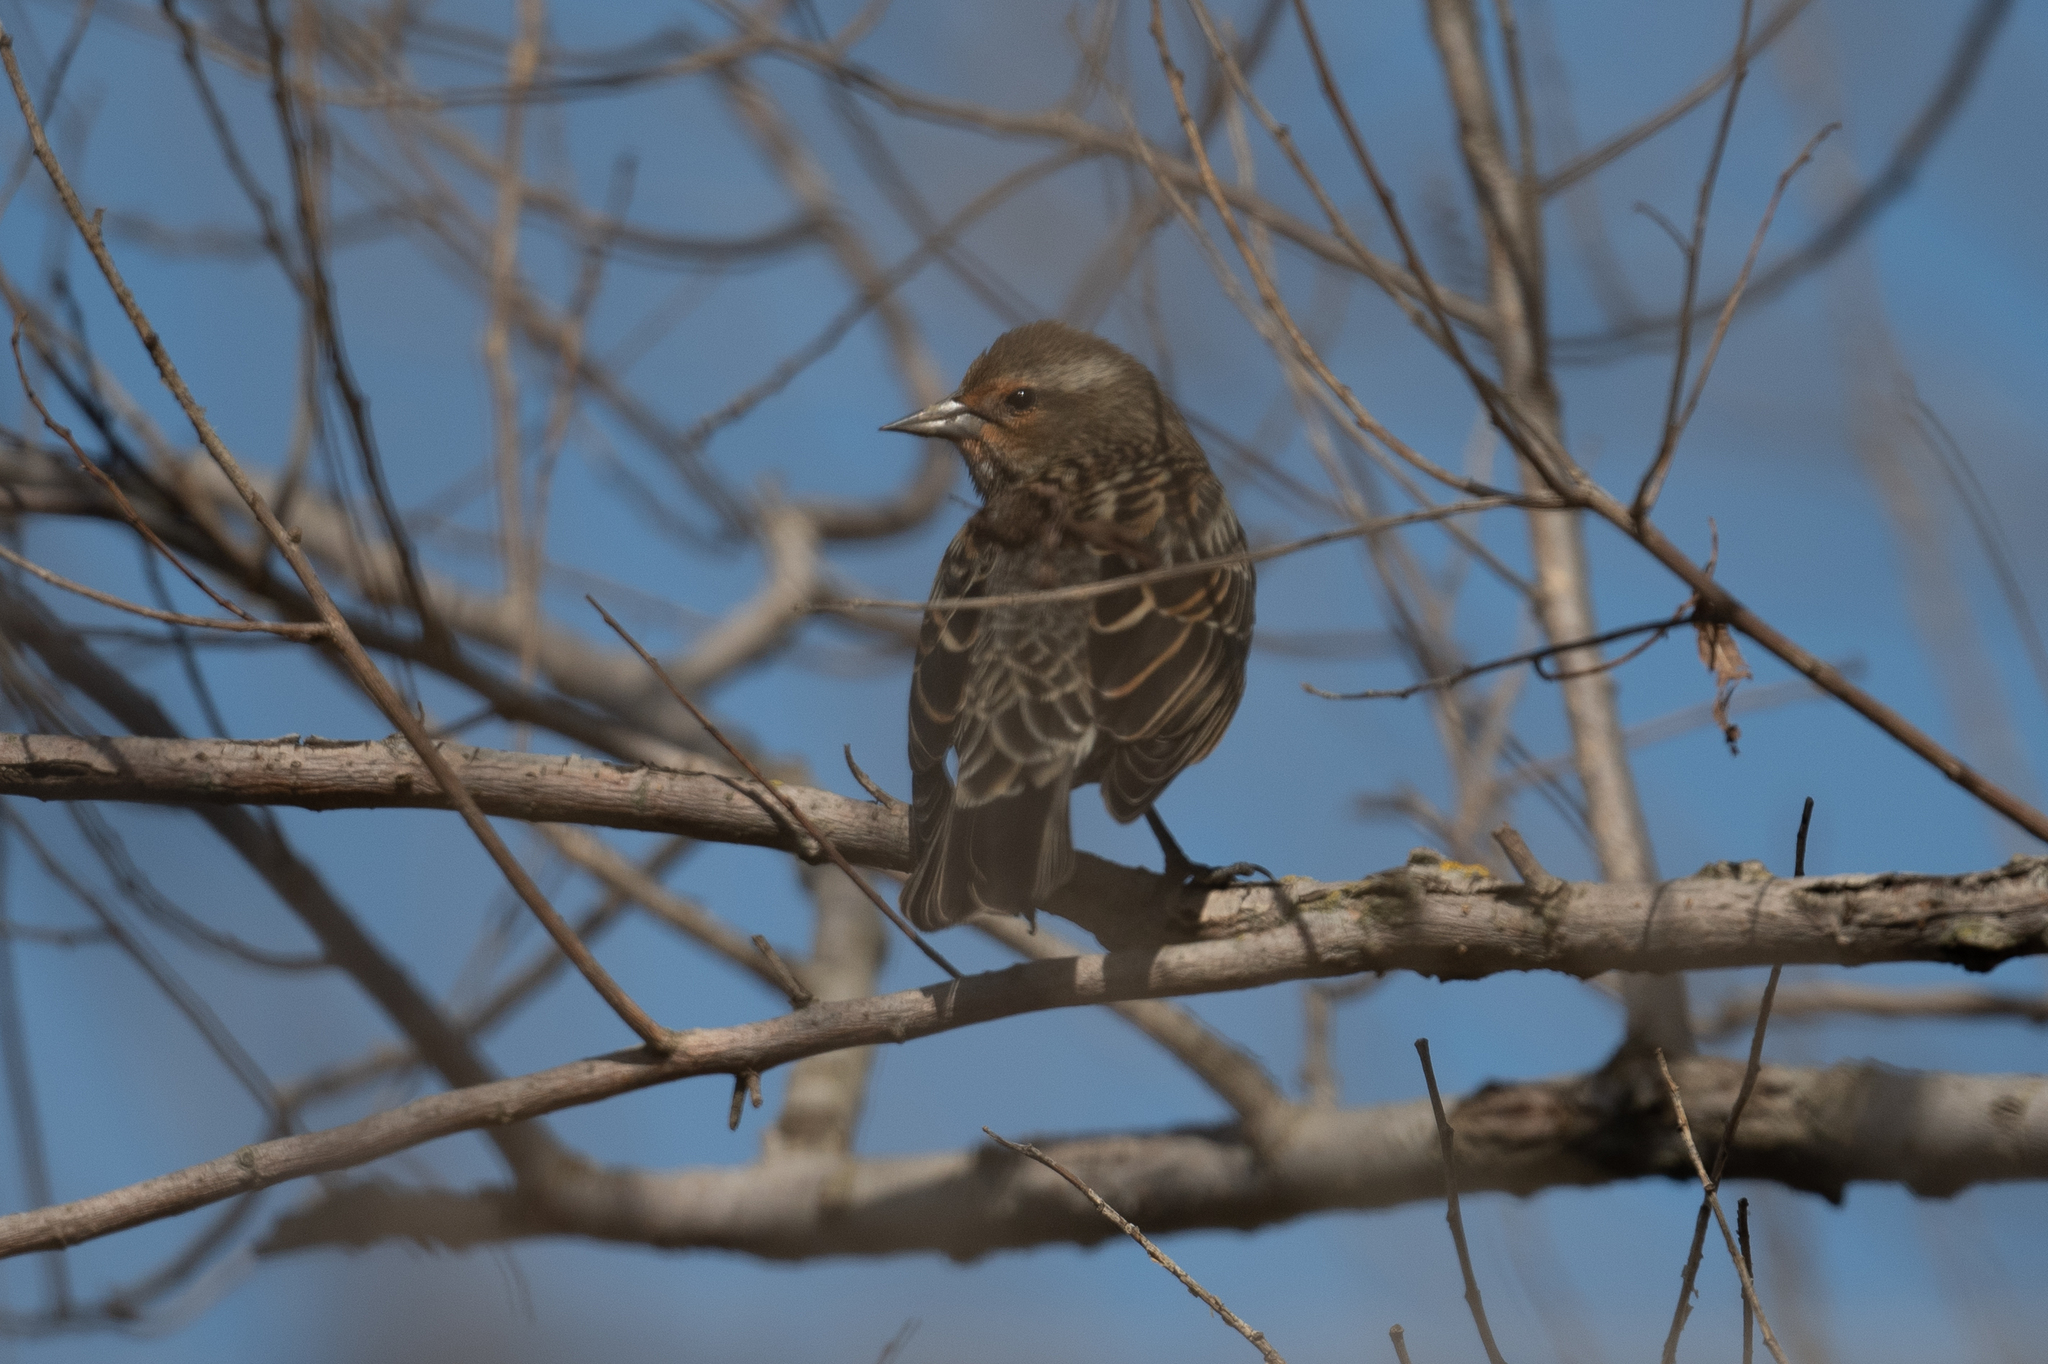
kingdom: Animalia
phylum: Chordata
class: Aves
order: Passeriformes
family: Icteridae
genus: Agelaius
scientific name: Agelaius phoeniceus
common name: Red-winged blackbird
